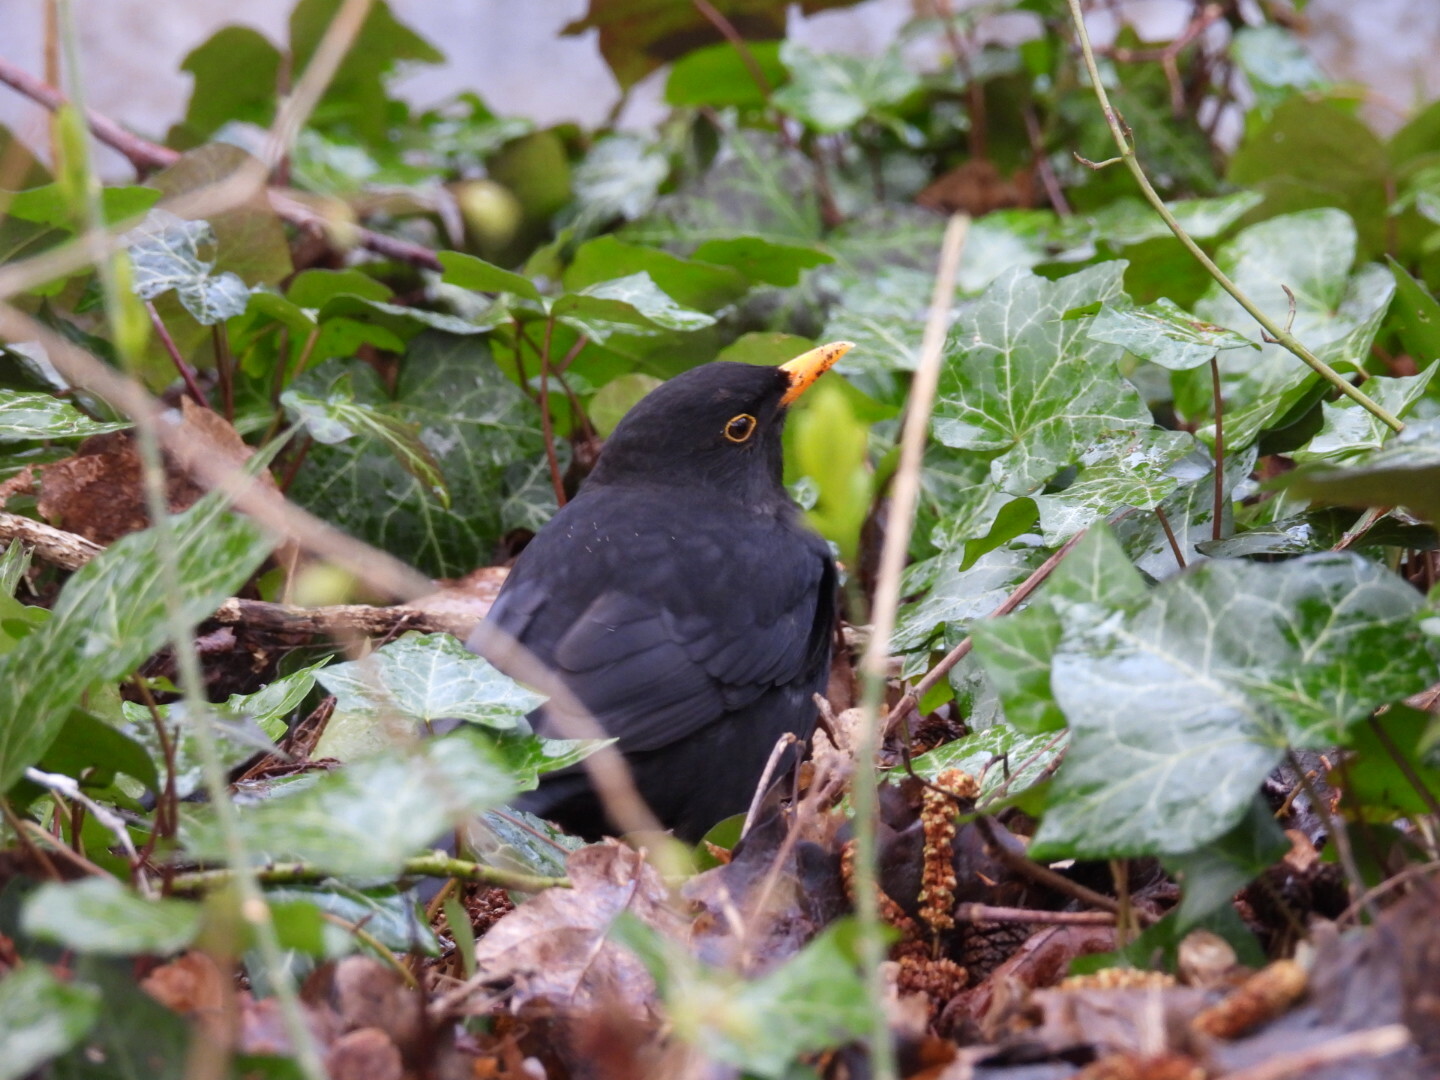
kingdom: Animalia
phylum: Chordata
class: Aves
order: Passeriformes
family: Turdidae
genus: Turdus
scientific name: Turdus merula
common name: Common blackbird
